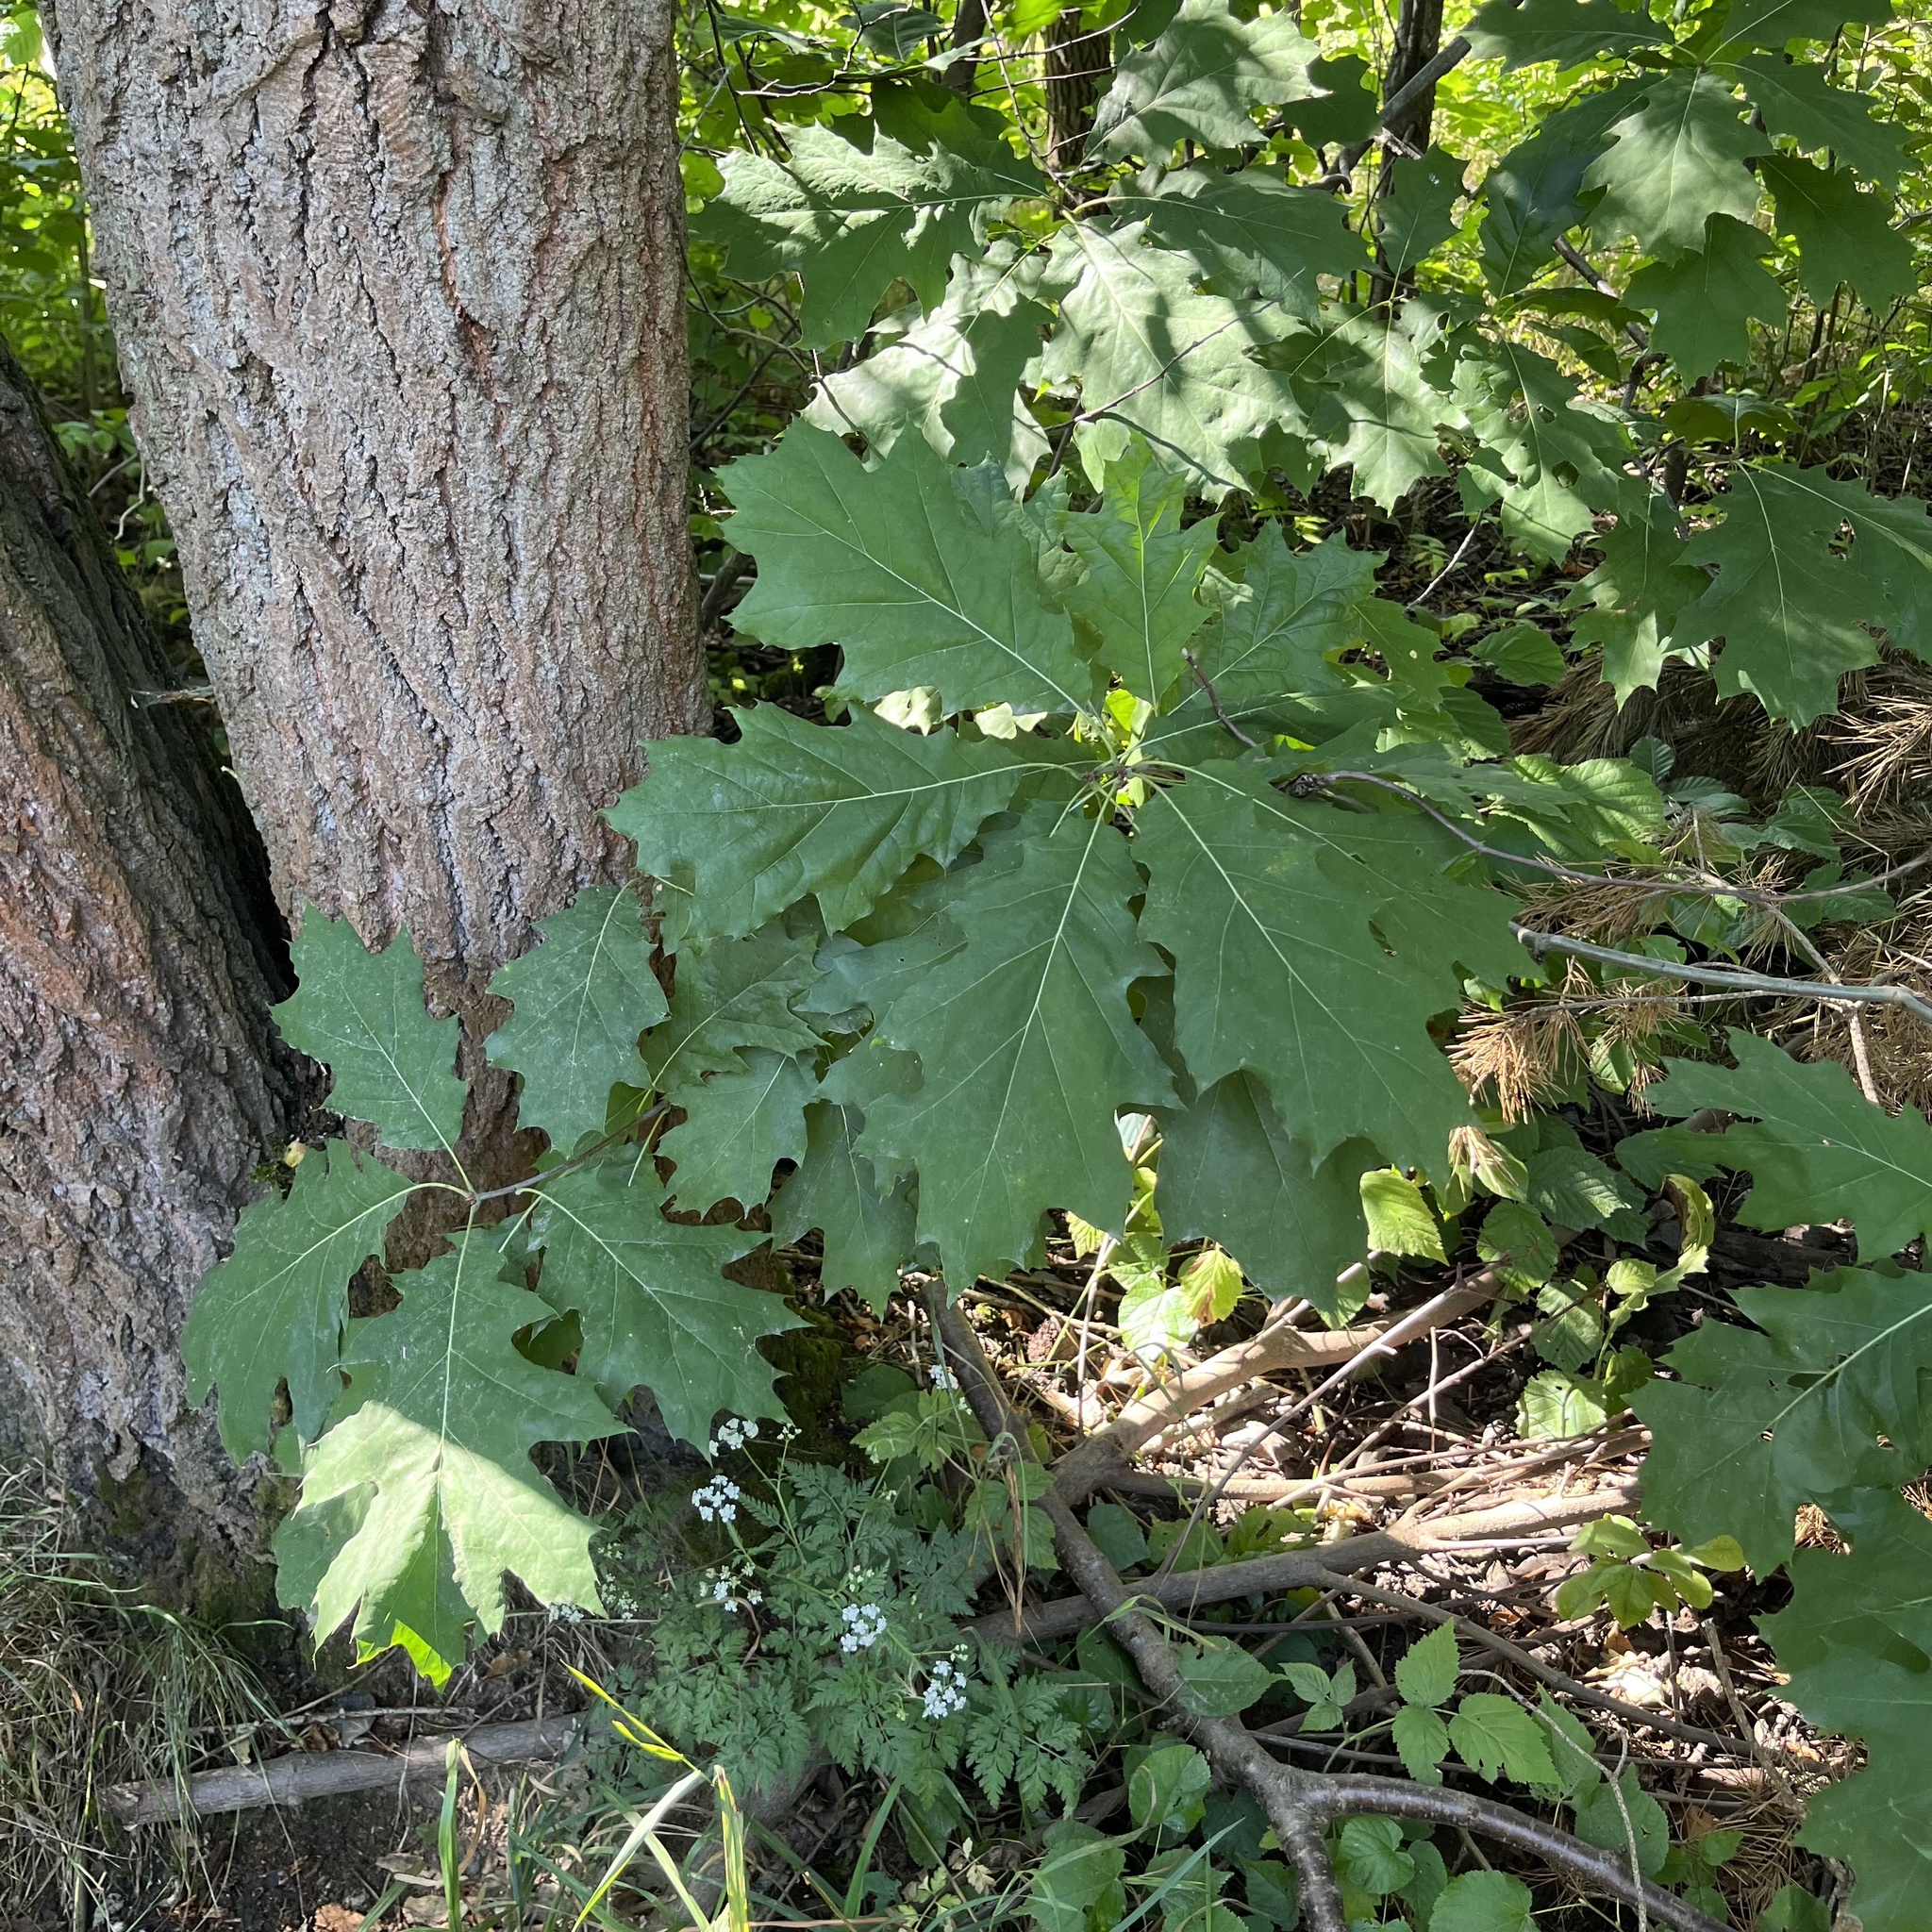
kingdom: Plantae
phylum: Tracheophyta
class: Magnoliopsida
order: Fagales
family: Fagaceae
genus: Quercus
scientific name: Quercus rubra
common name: Red oak
